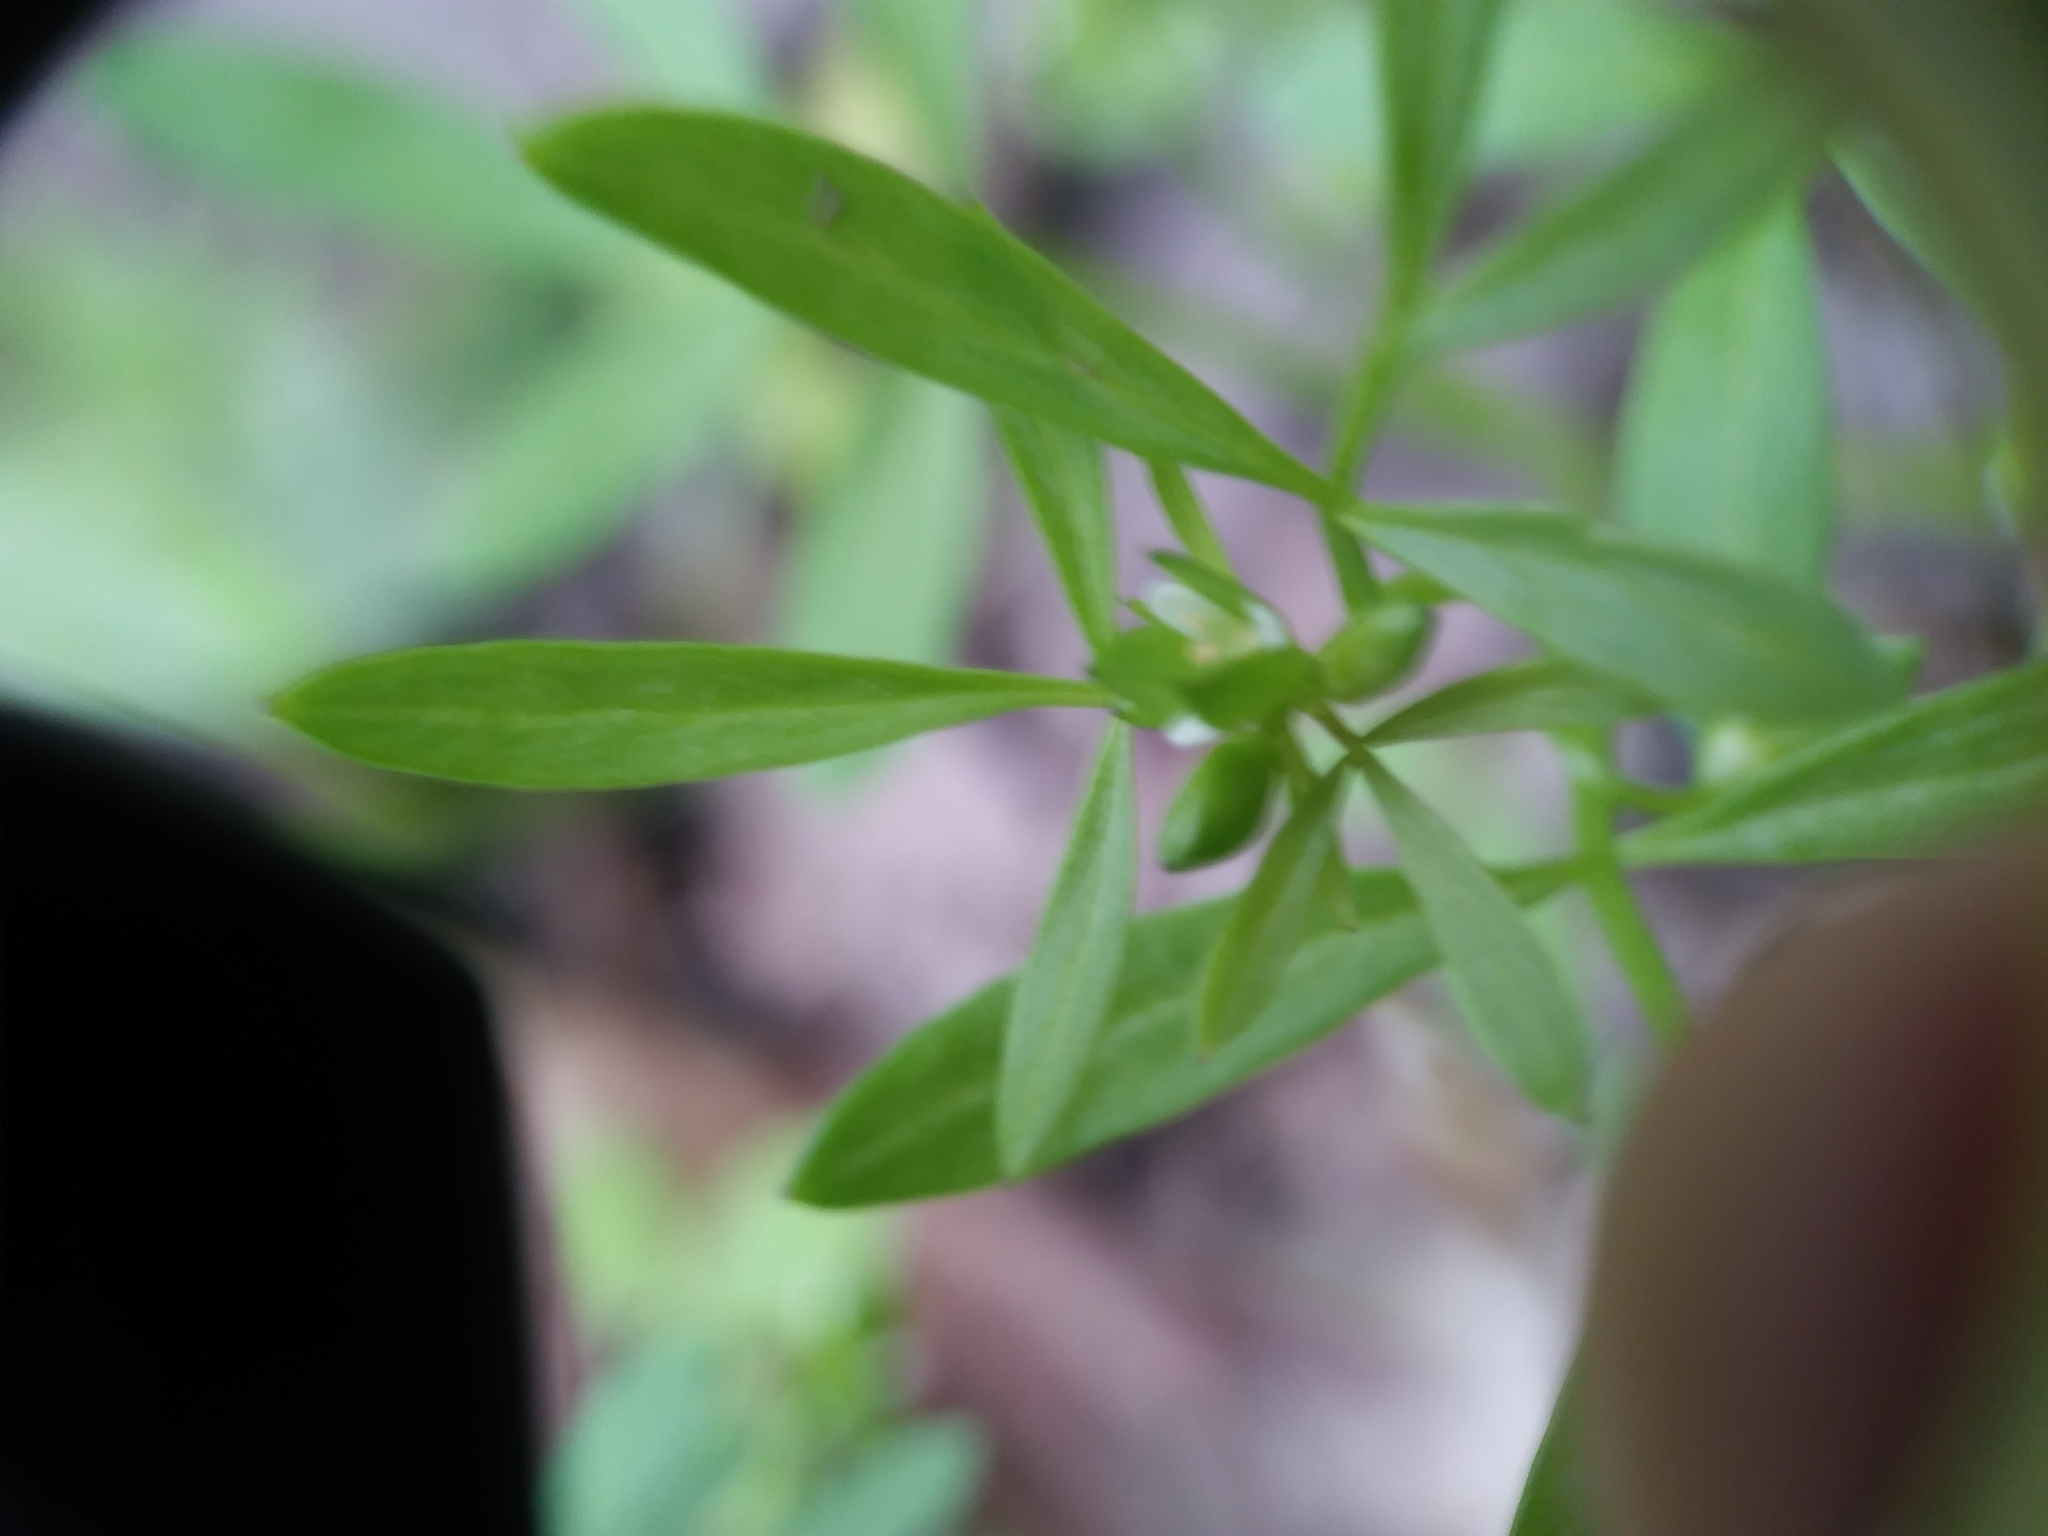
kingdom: Plantae
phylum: Tracheophyta
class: Magnoliopsida
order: Brassicales
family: Limnanthaceae
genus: Floerkea
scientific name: Floerkea proserpinacoides
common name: False mermaid
